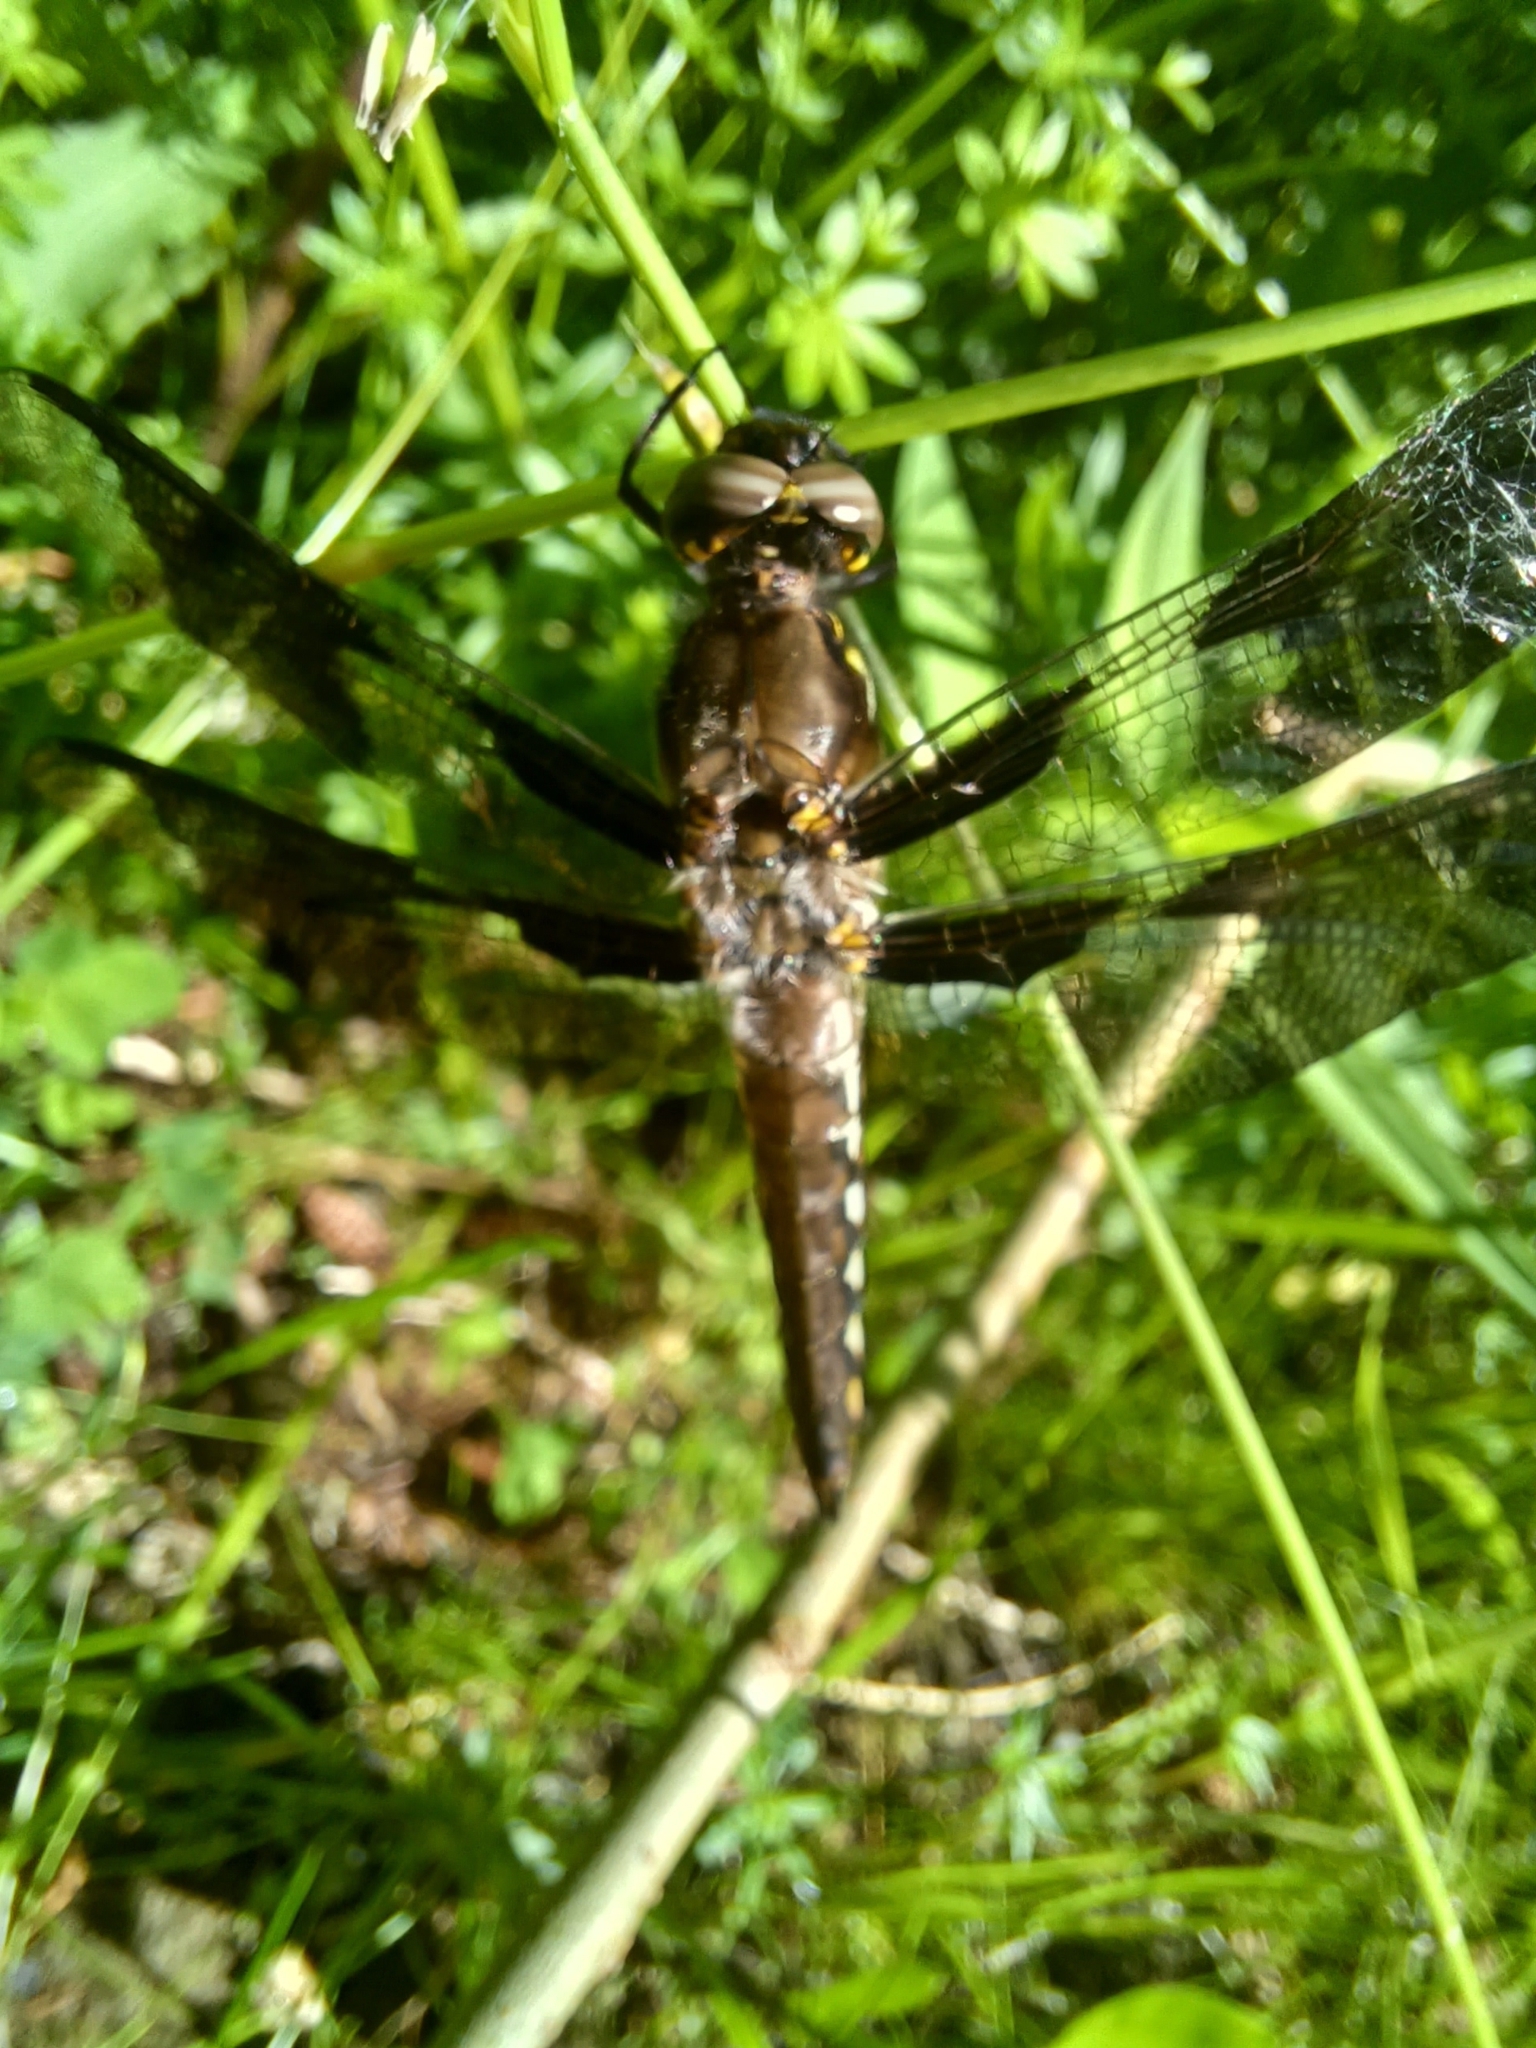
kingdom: Animalia
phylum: Arthropoda
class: Insecta
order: Odonata
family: Libellulidae
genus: Plathemis
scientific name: Plathemis lydia
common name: Common whitetail
